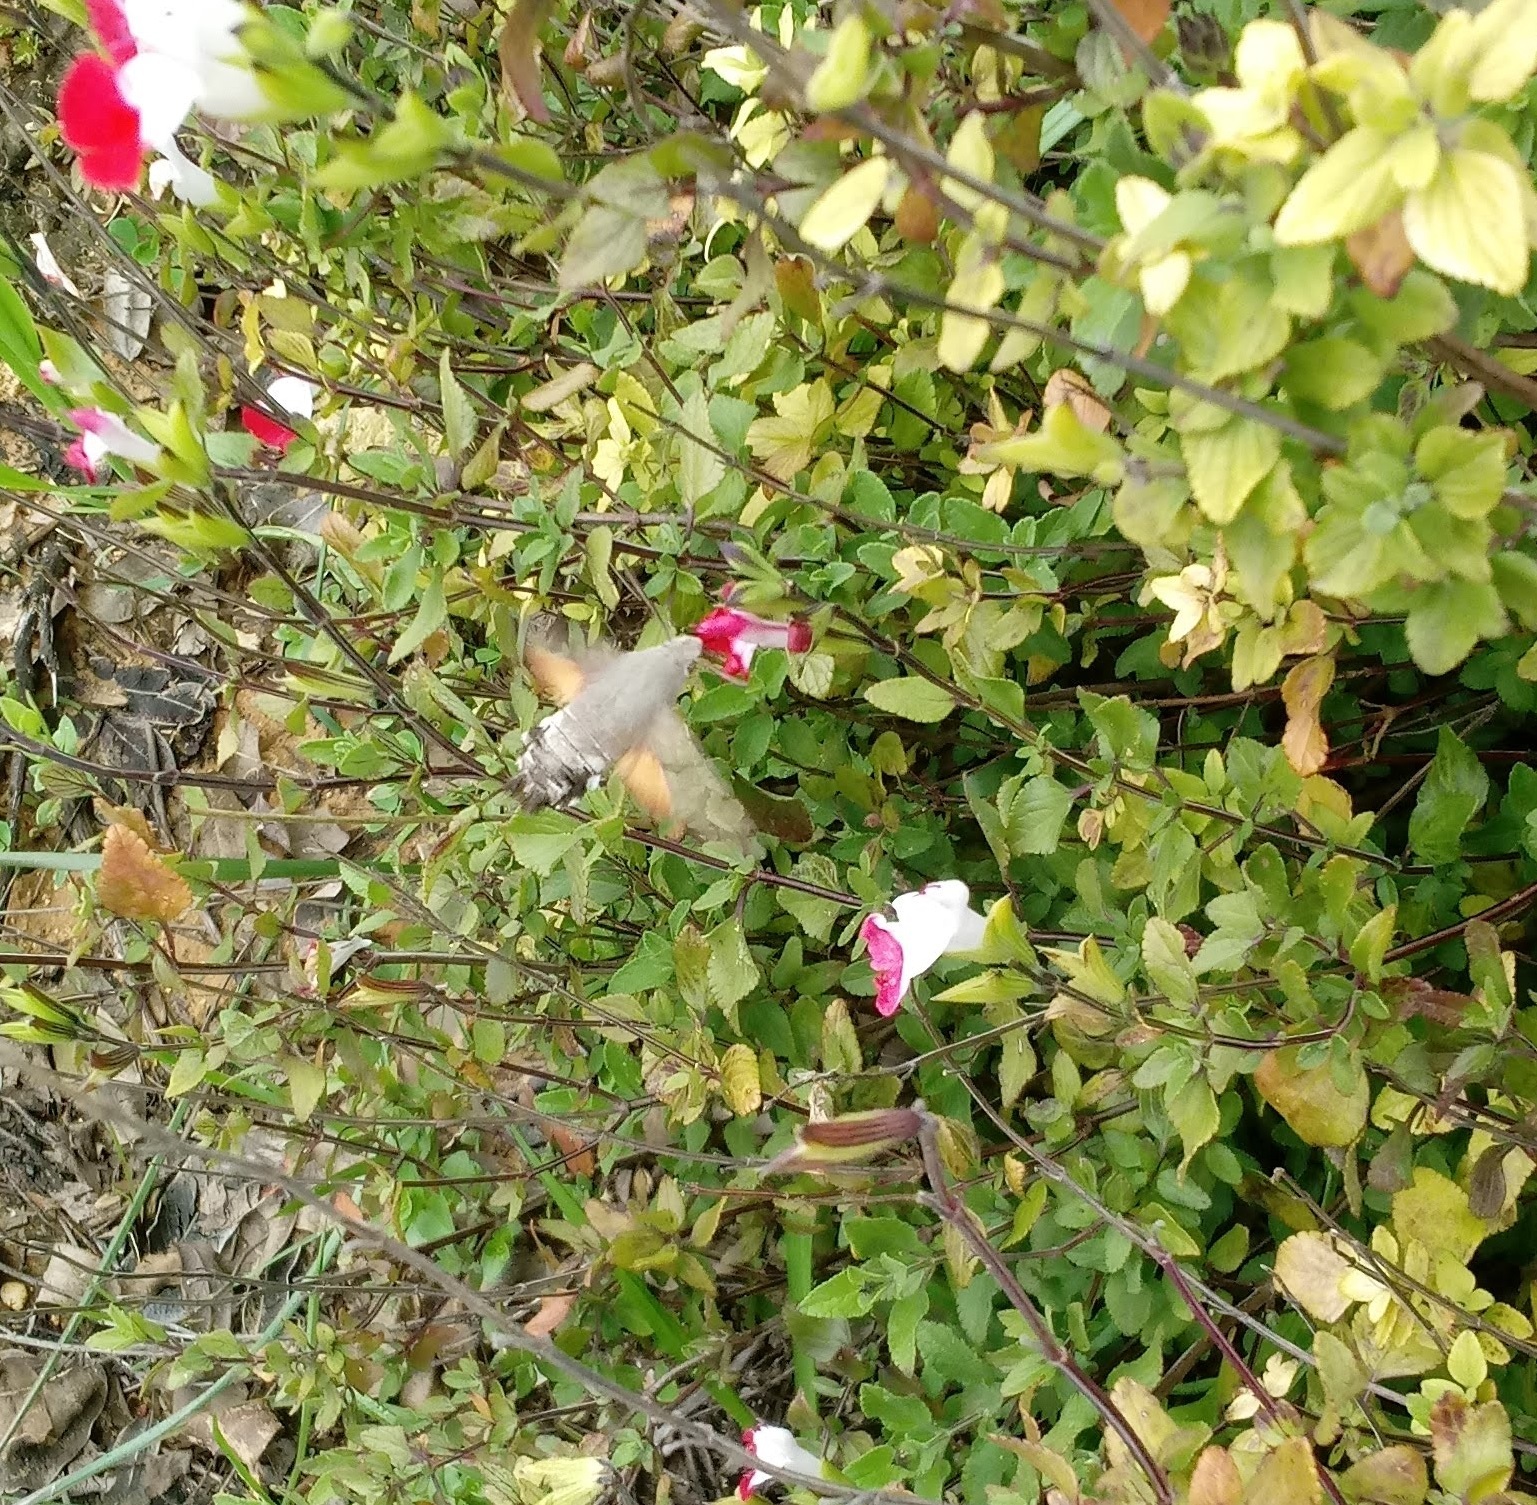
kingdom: Animalia
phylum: Arthropoda
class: Insecta
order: Lepidoptera
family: Sphingidae
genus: Macroglossum
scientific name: Macroglossum stellatarum
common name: Humming-bird hawk-moth
